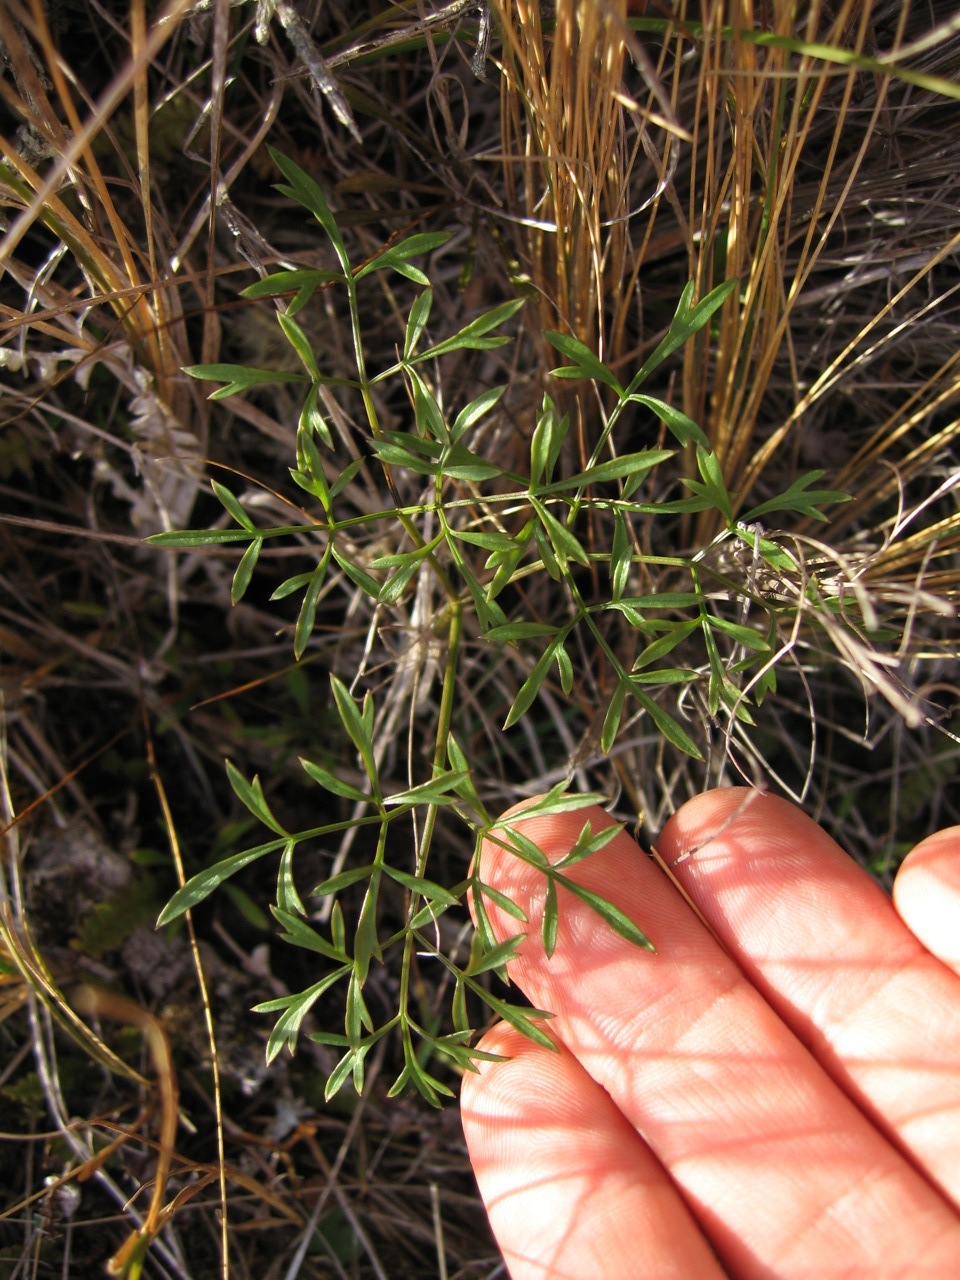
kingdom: Plantae
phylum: Tracheophyta
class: Magnoliopsida
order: Apiales
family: Apiaceae
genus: Anisotome
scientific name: Anisotome filifolia
